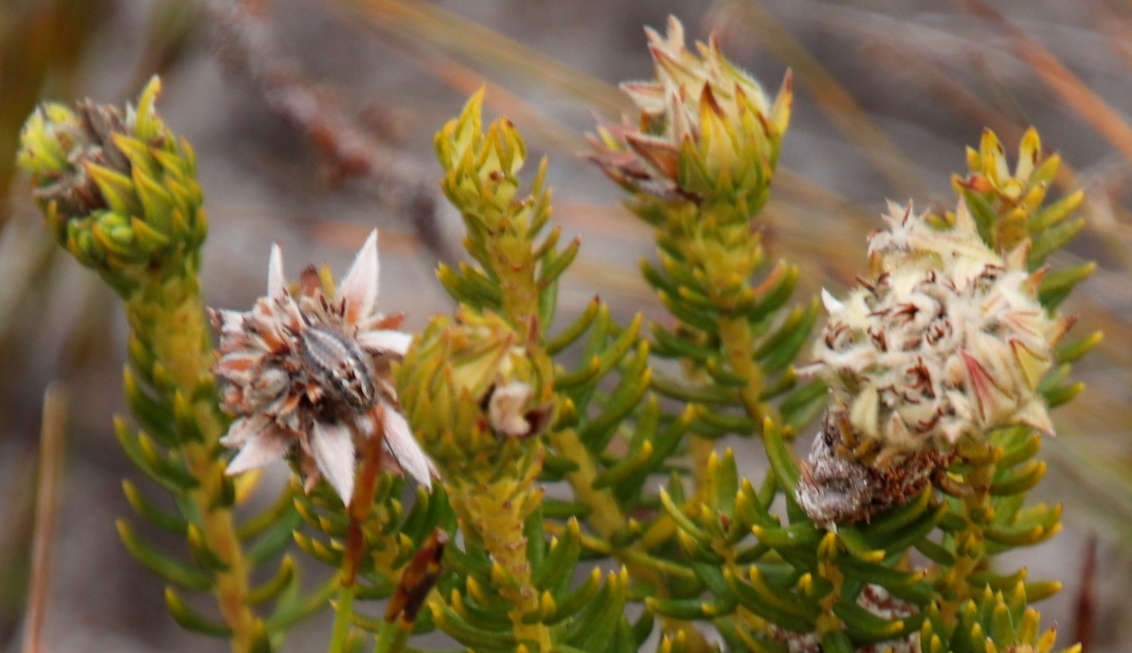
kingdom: Plantae
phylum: Tracheophyta
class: Magnoliopsida
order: Rosales
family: Rhamnaceae
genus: Phylica
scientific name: Phylica dodii
